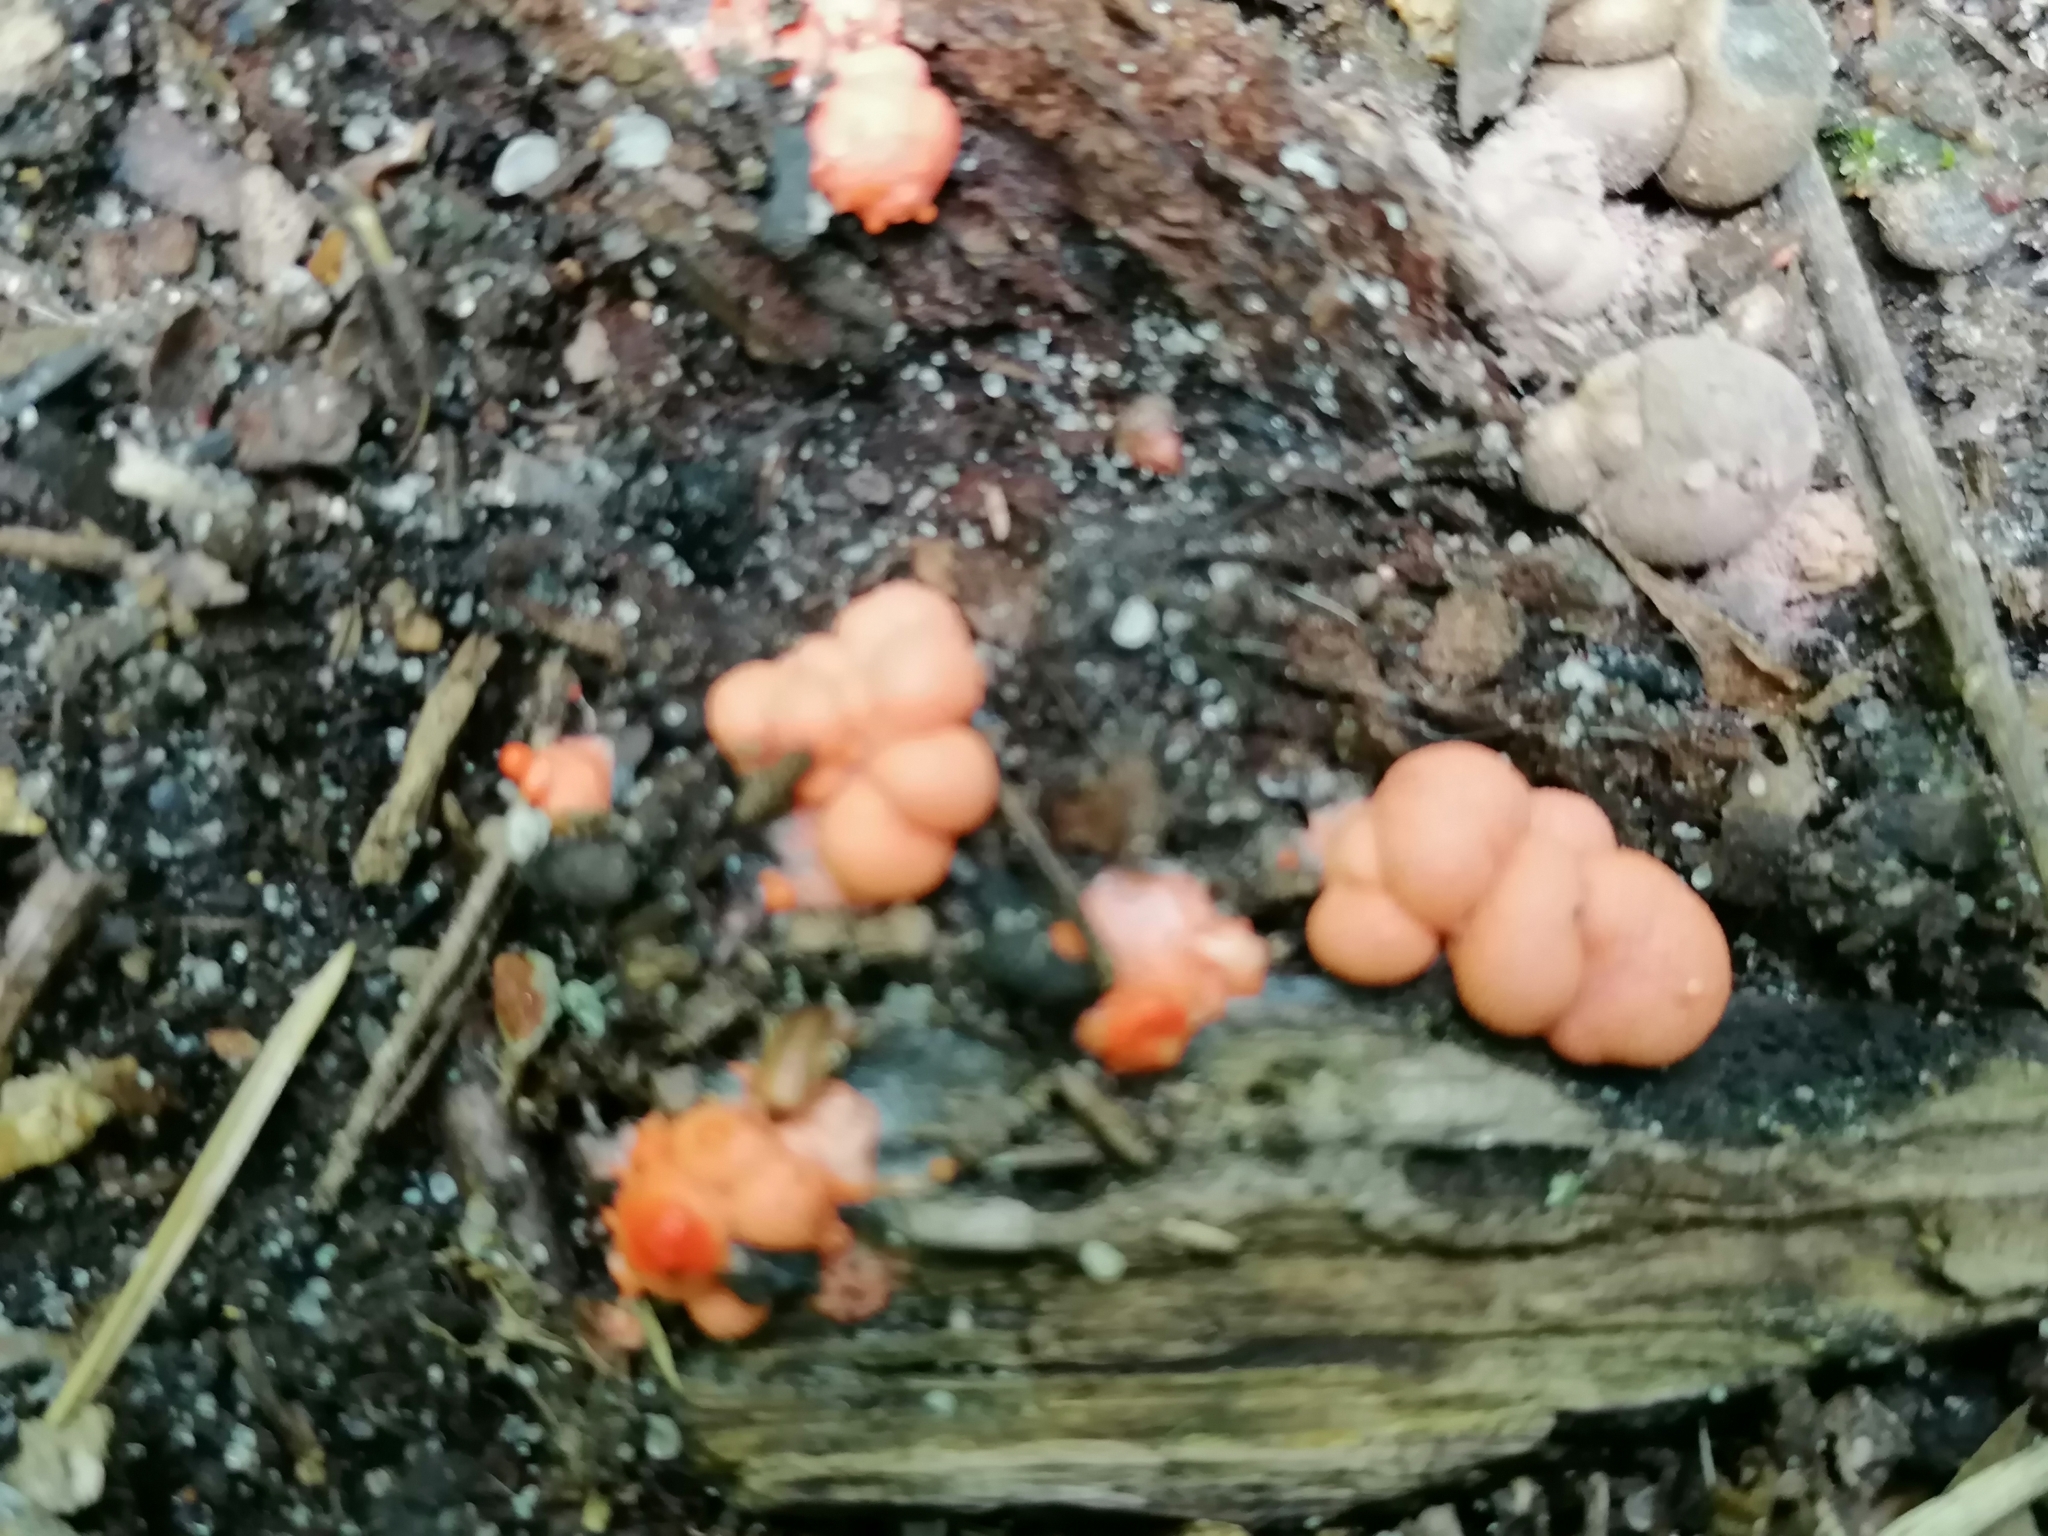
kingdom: Protozoa
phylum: Mycetozoa
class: Myxomycetes
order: Cribrariales
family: Tubiferaceae
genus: Lycogala
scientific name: Lycogala epidendrum
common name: Wolf's milk
